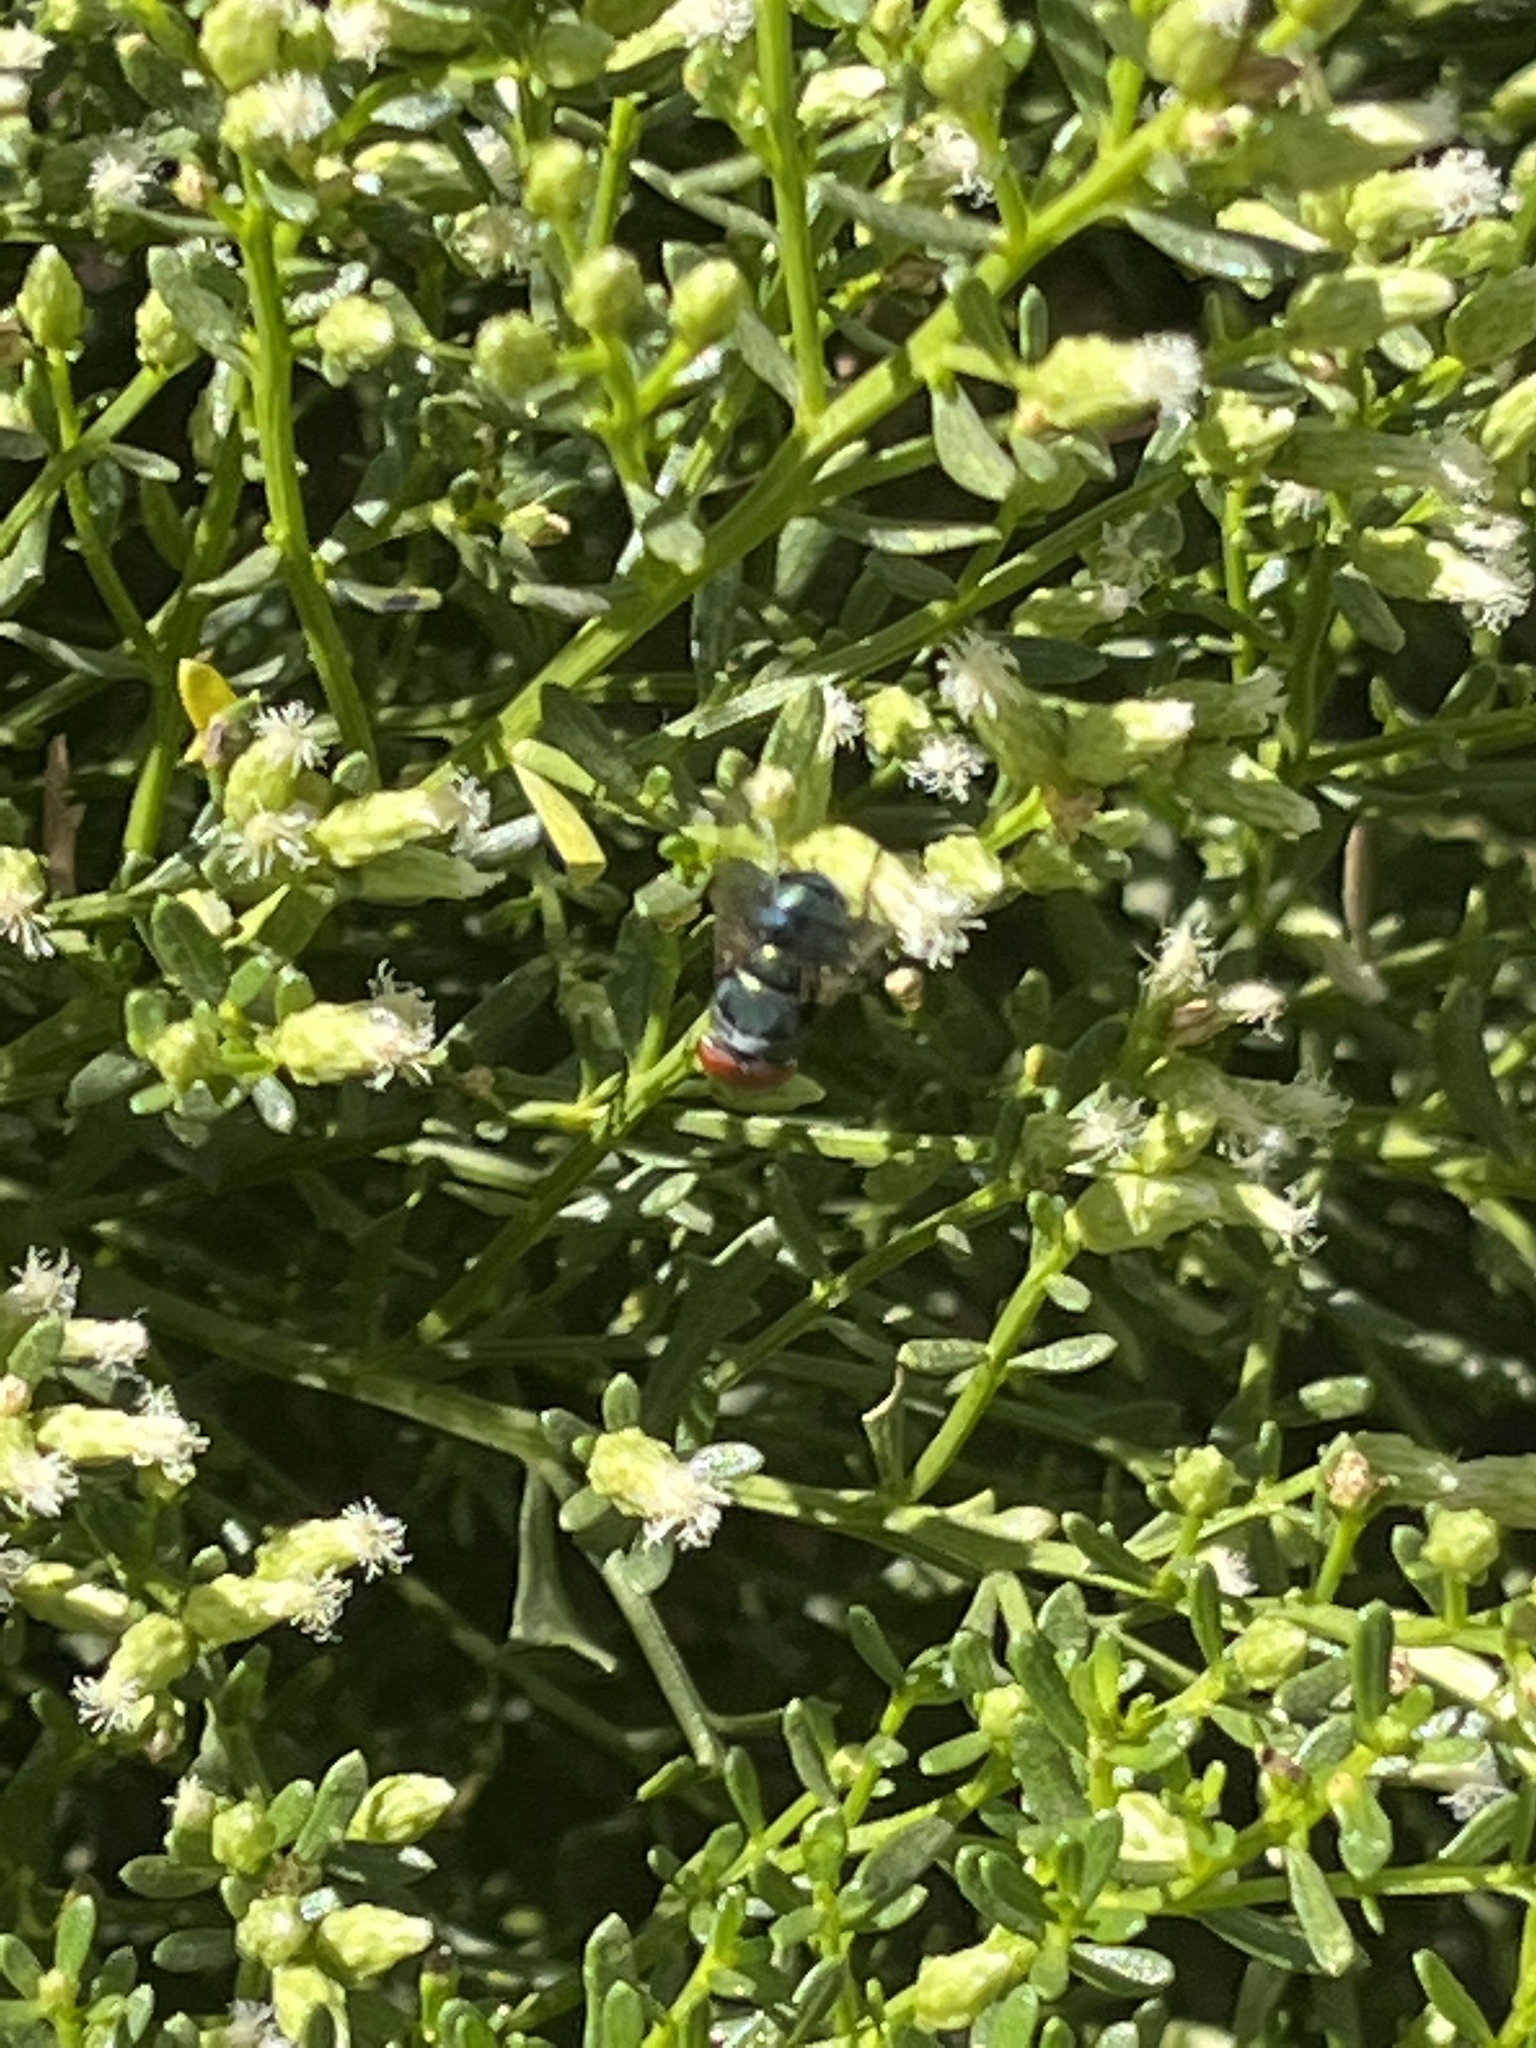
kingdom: Animalia
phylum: Arthropoda
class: Insecta
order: Diptera
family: Calliphoridae
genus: Chrysomya
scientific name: Chrysomya megacephala
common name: Blow fly
